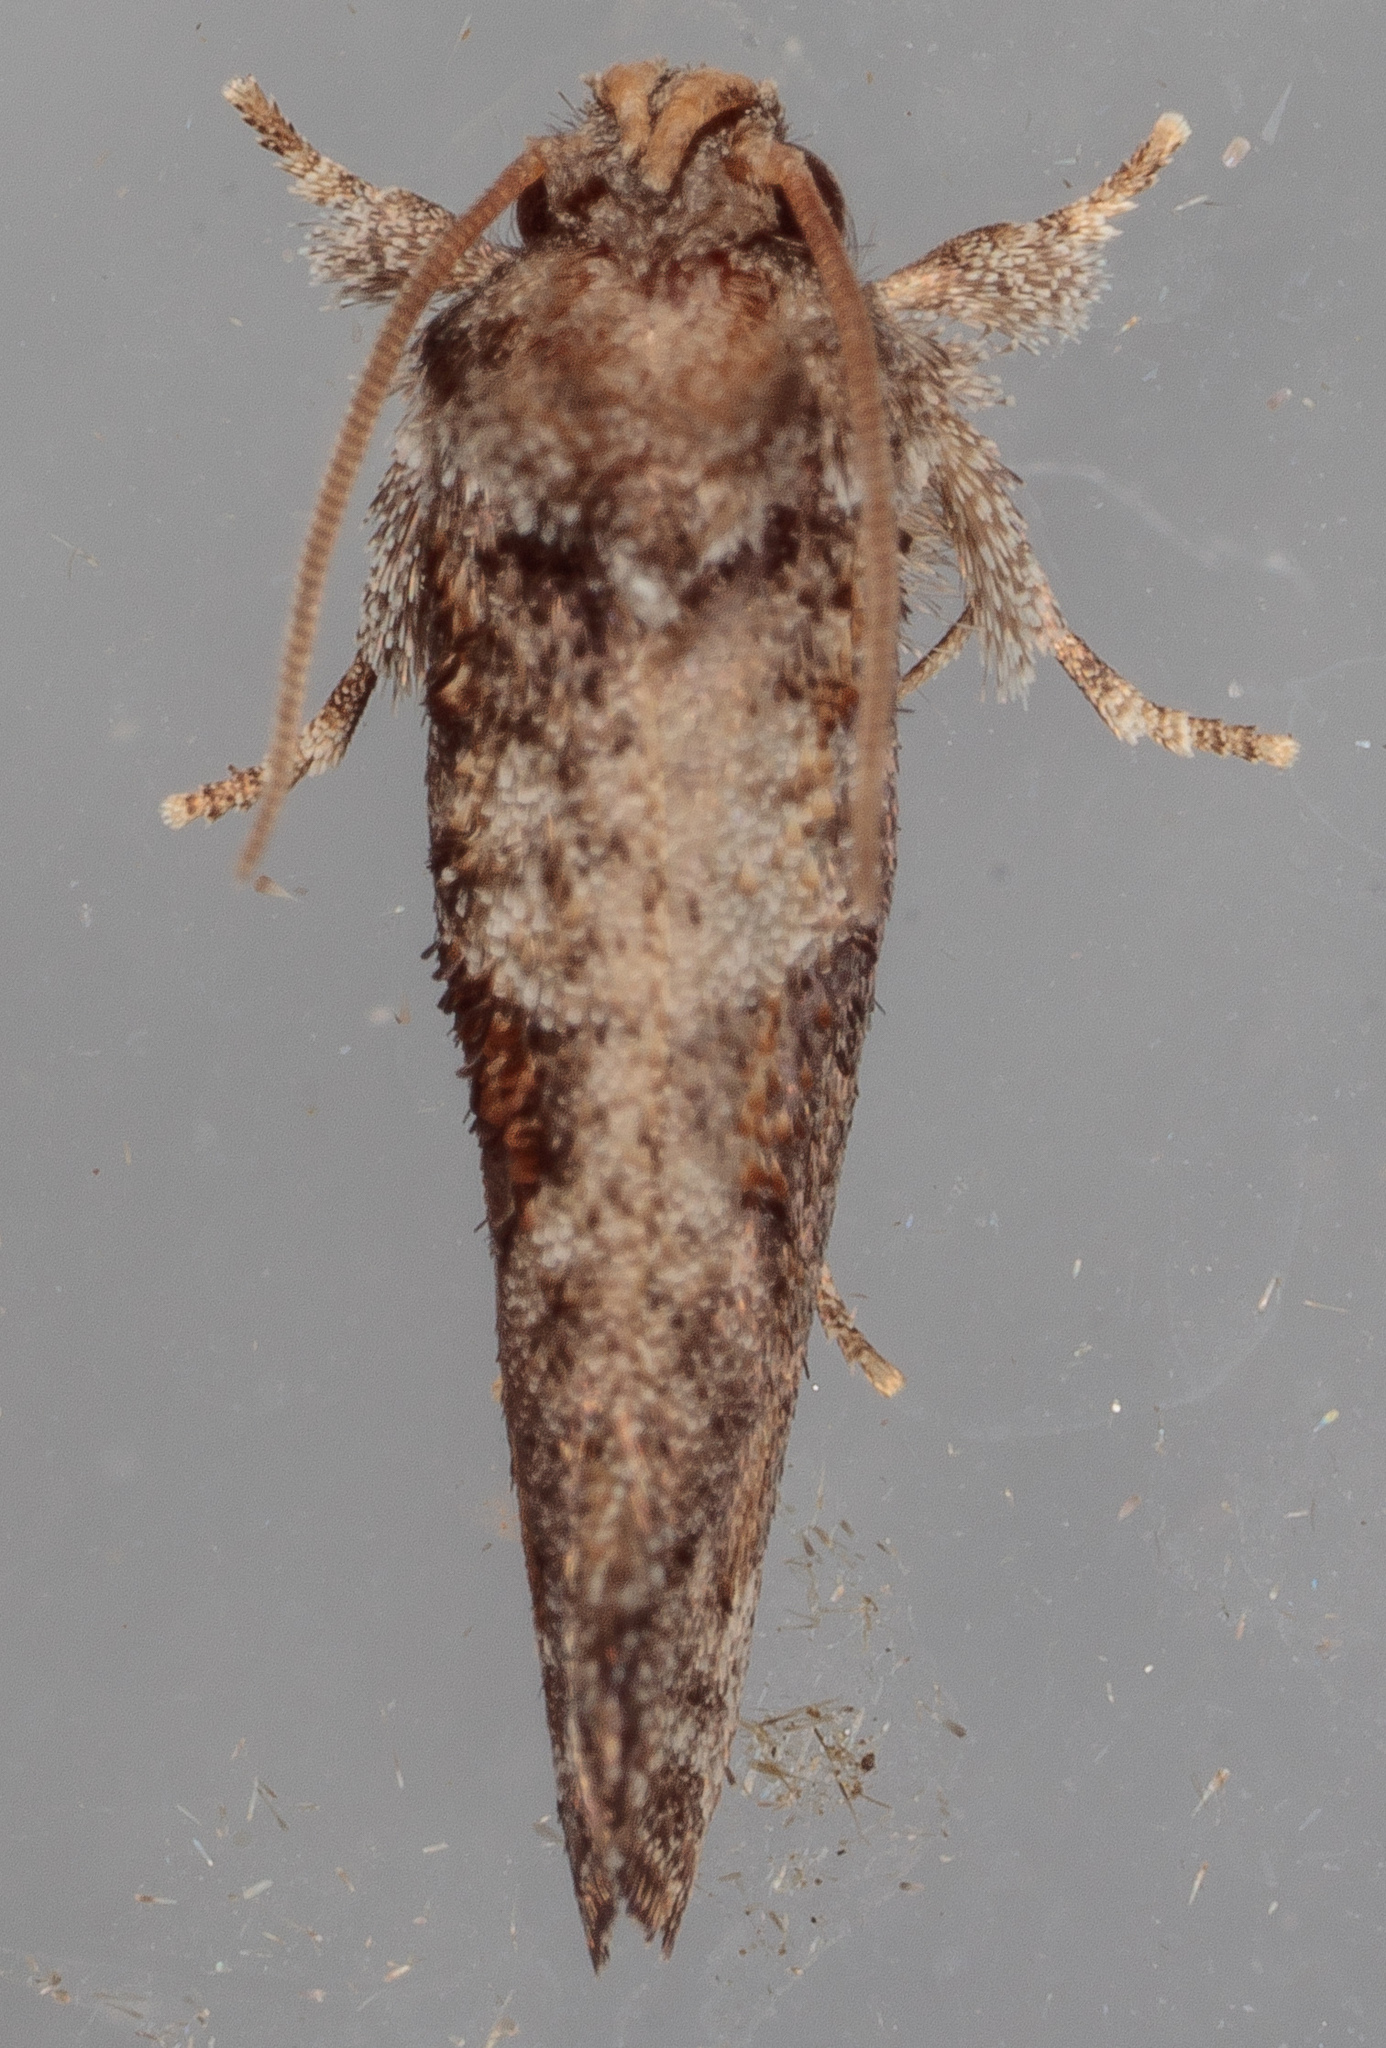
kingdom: Animalia
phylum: Arthropoda
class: Insecta
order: Lepidoptera
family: Tineidae
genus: Acrolophus
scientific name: Acrolophus piger
